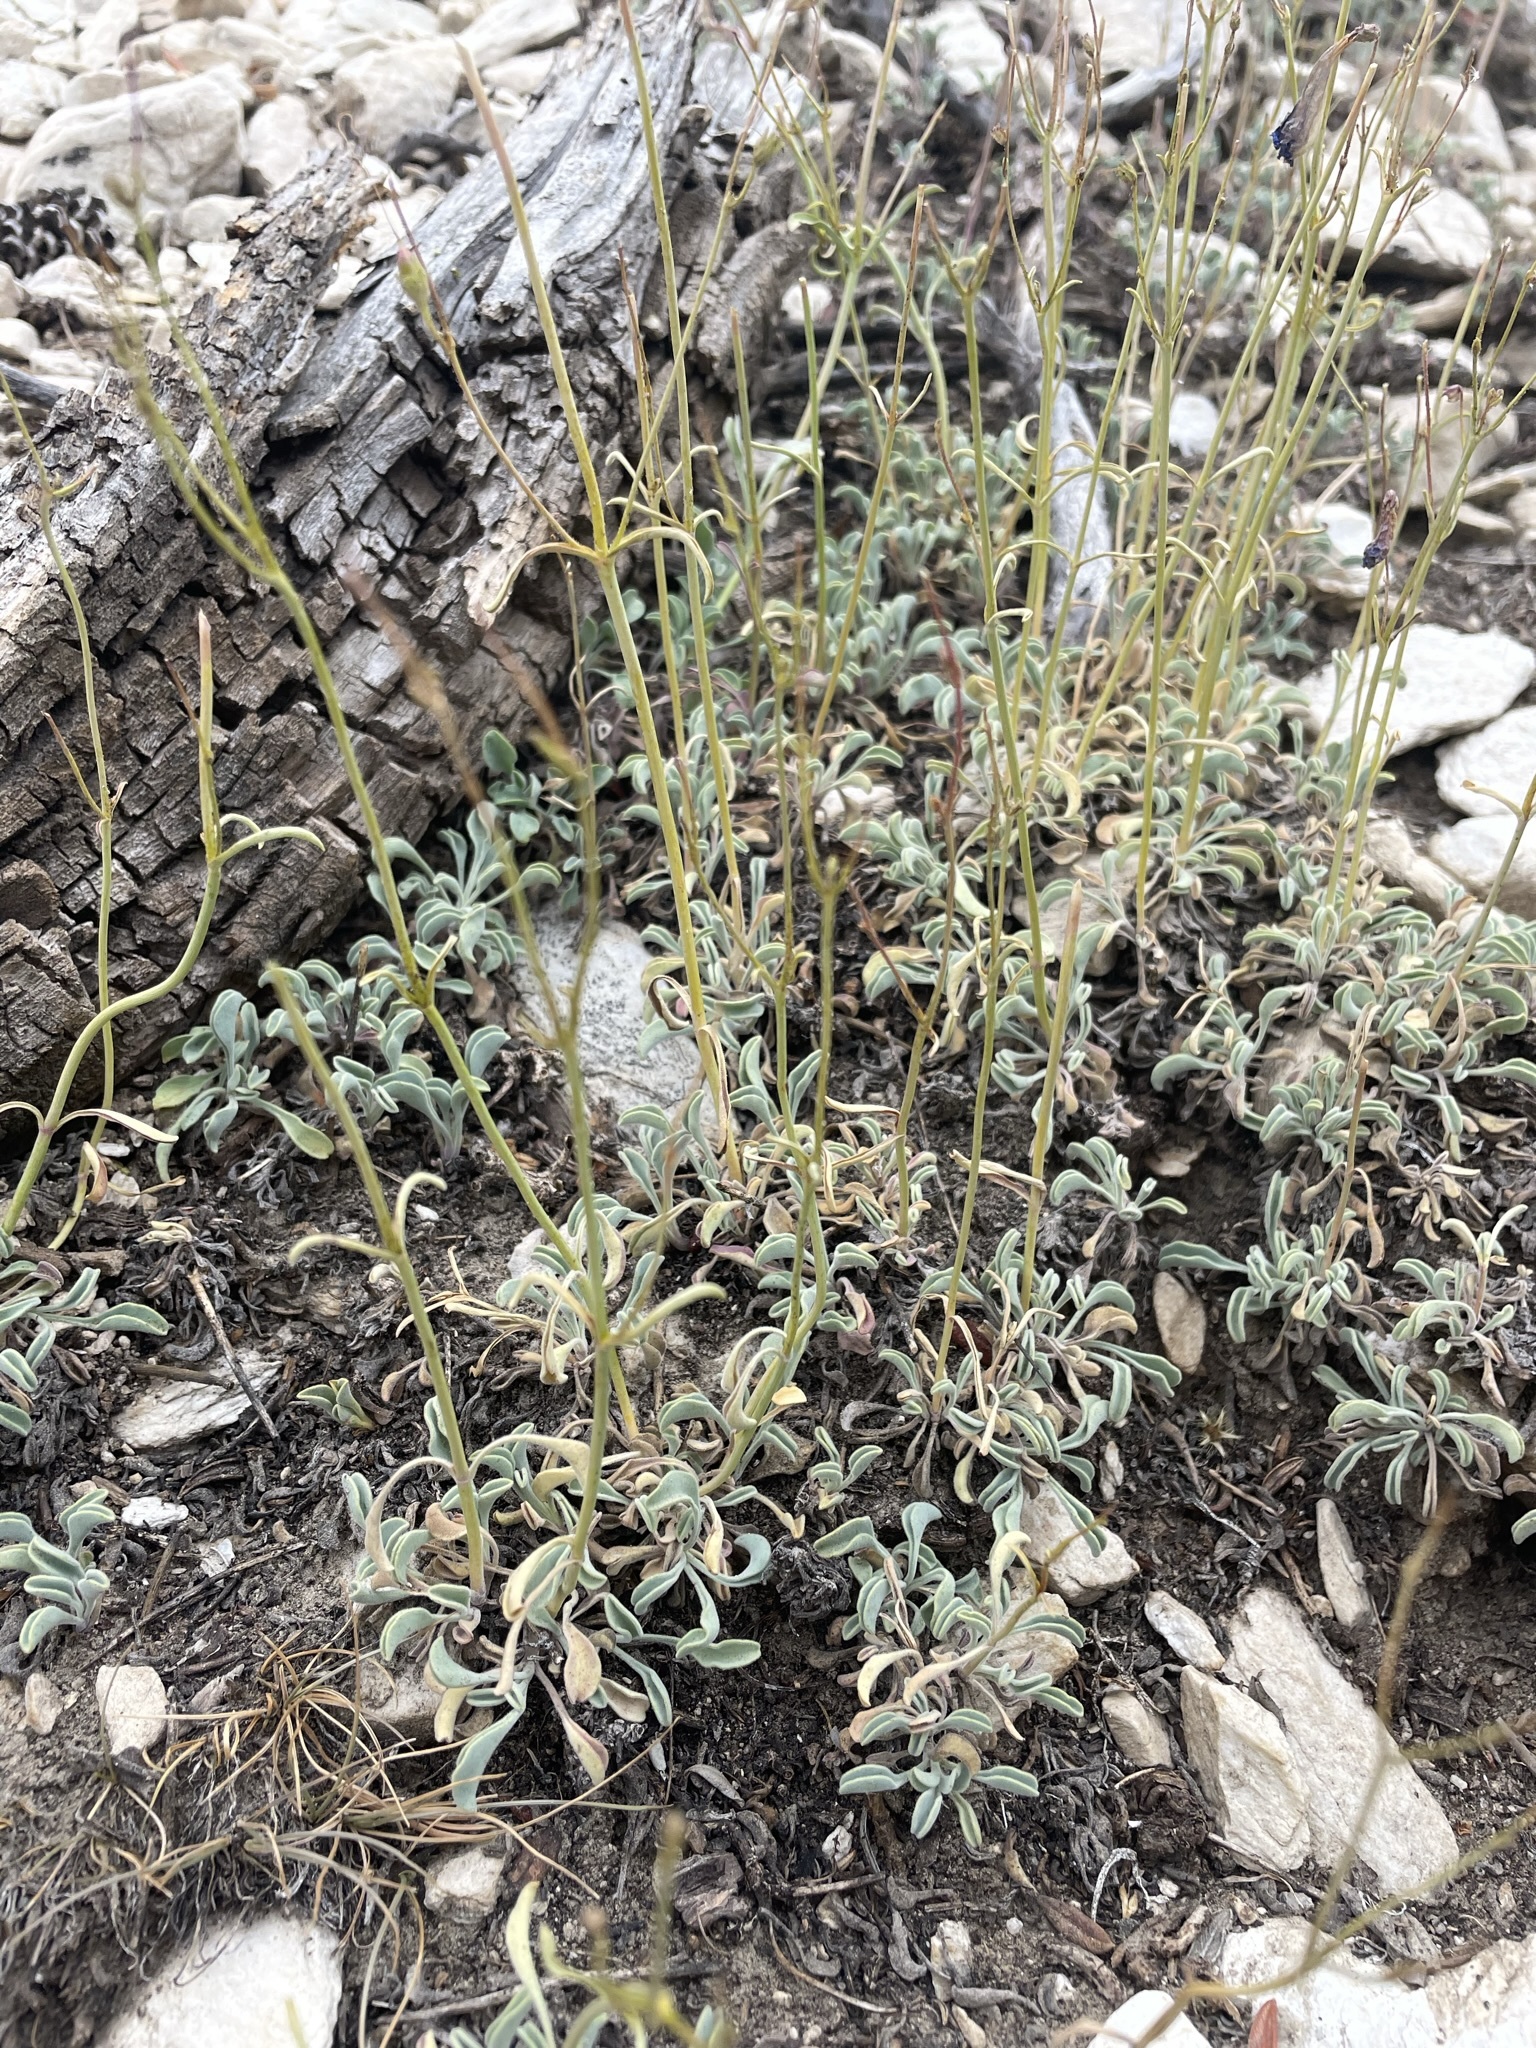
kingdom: Plantae
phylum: Tracheophyta
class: Magnoliopsida
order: Lamiales
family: Plantaginaceae
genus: Penstemon
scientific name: Penstemon scapoides
